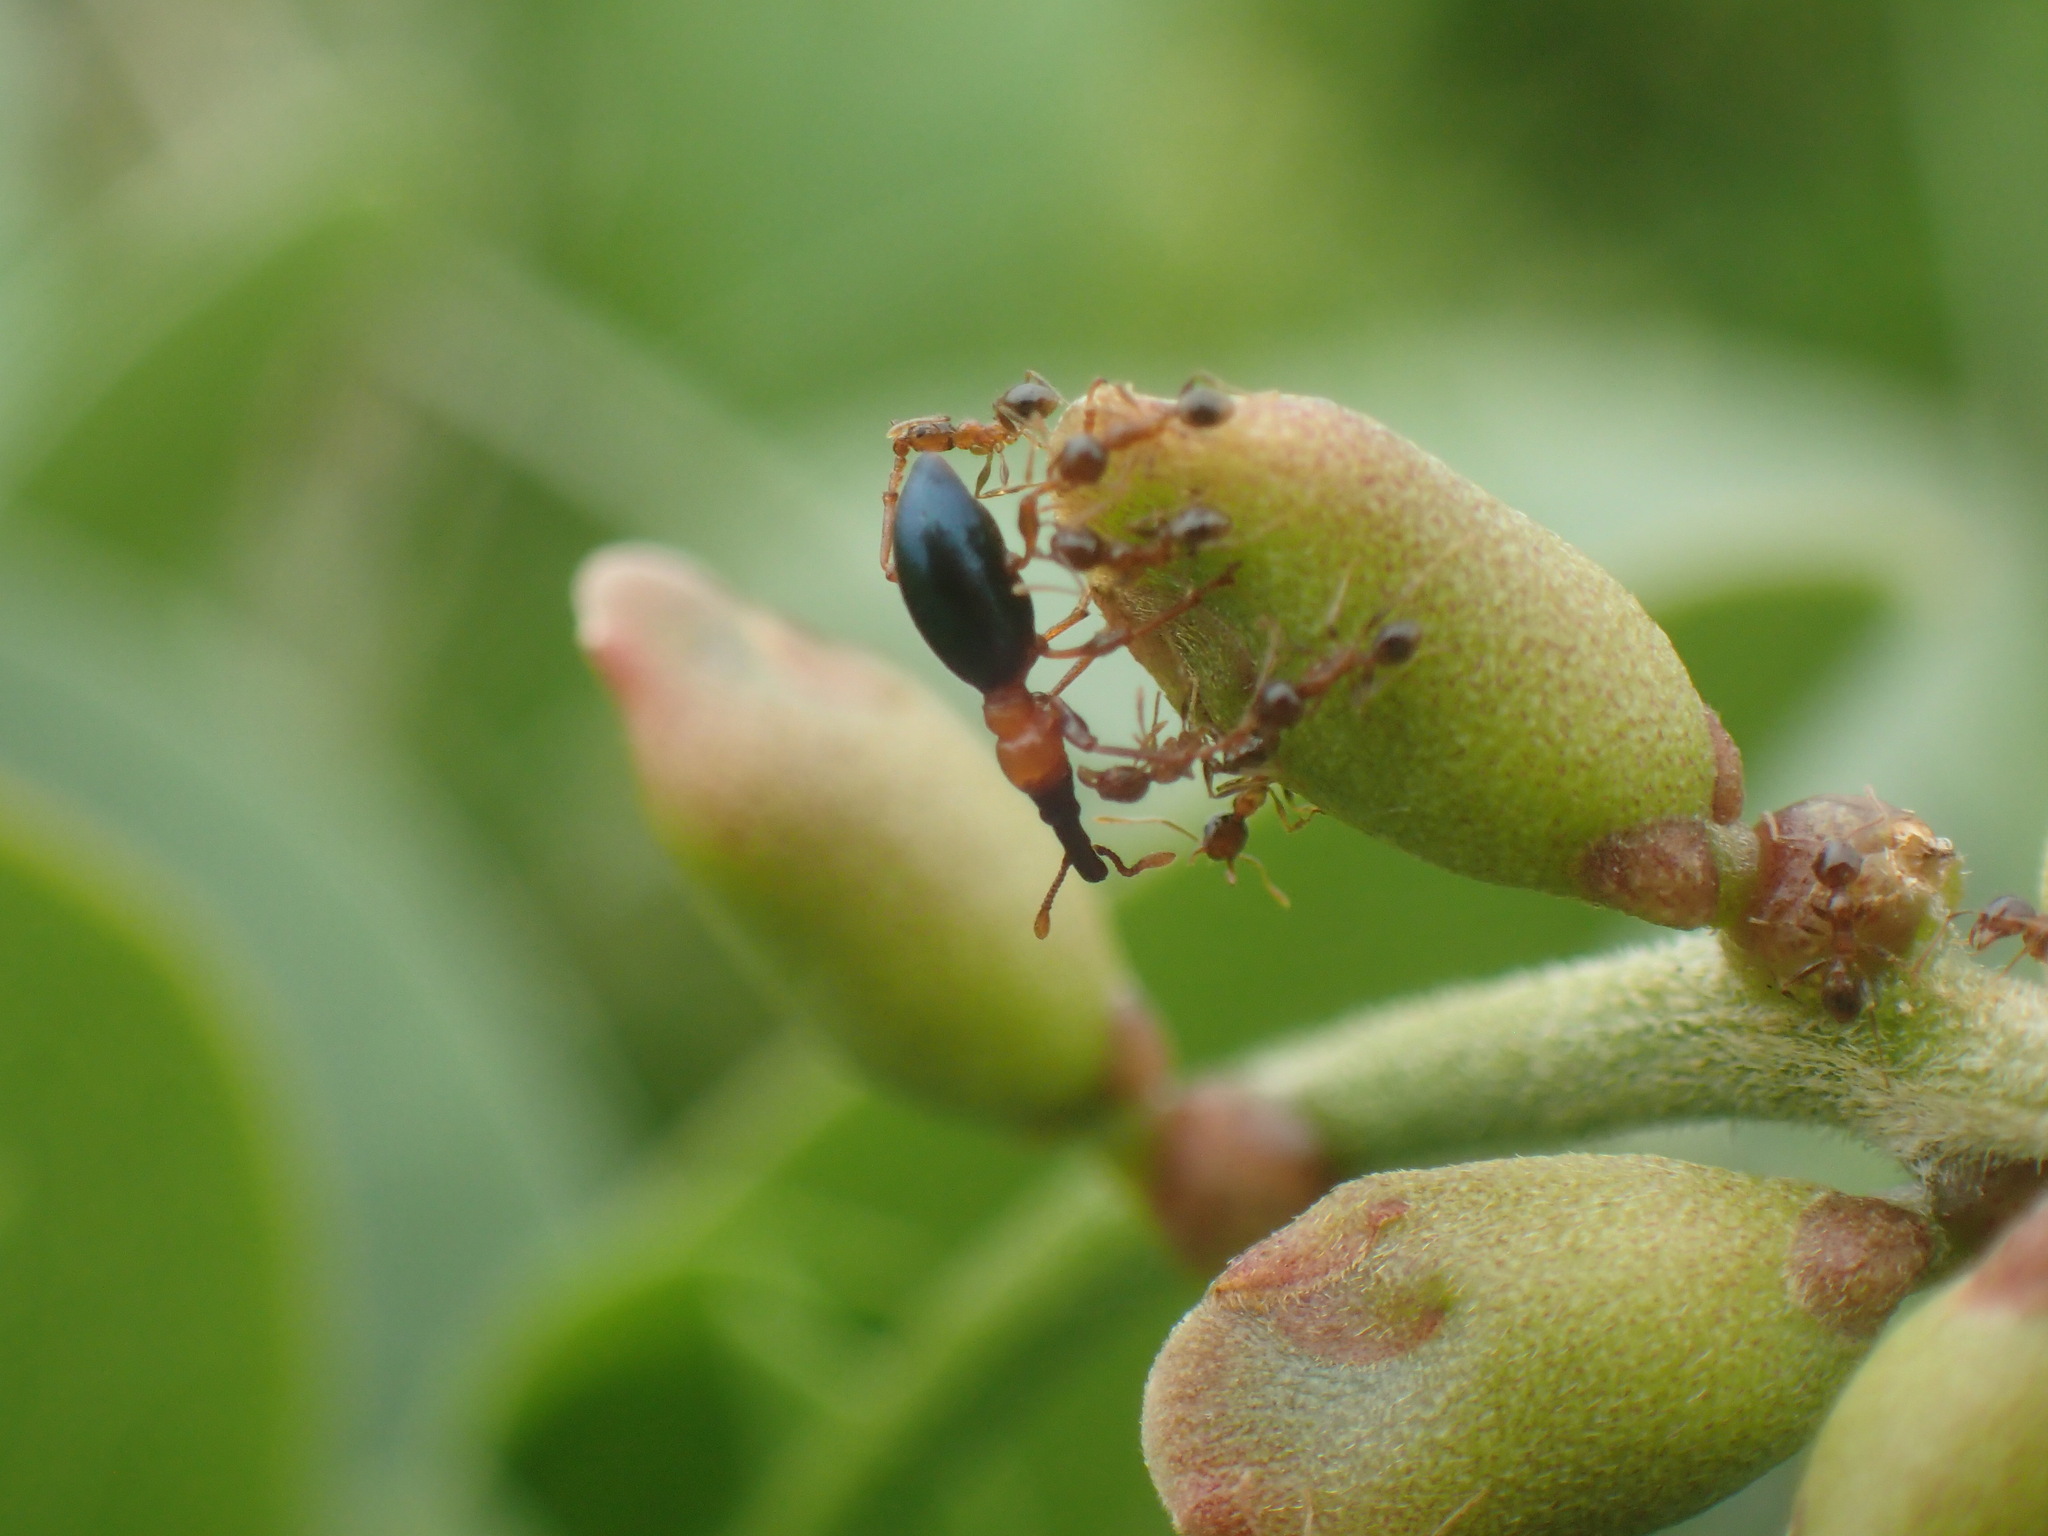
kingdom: Animalia
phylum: Arthropoda
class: Insecta
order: Coleoptera
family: Brentidae
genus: Cylas
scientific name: Cylas formicarius
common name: Sweetpotato weevil
